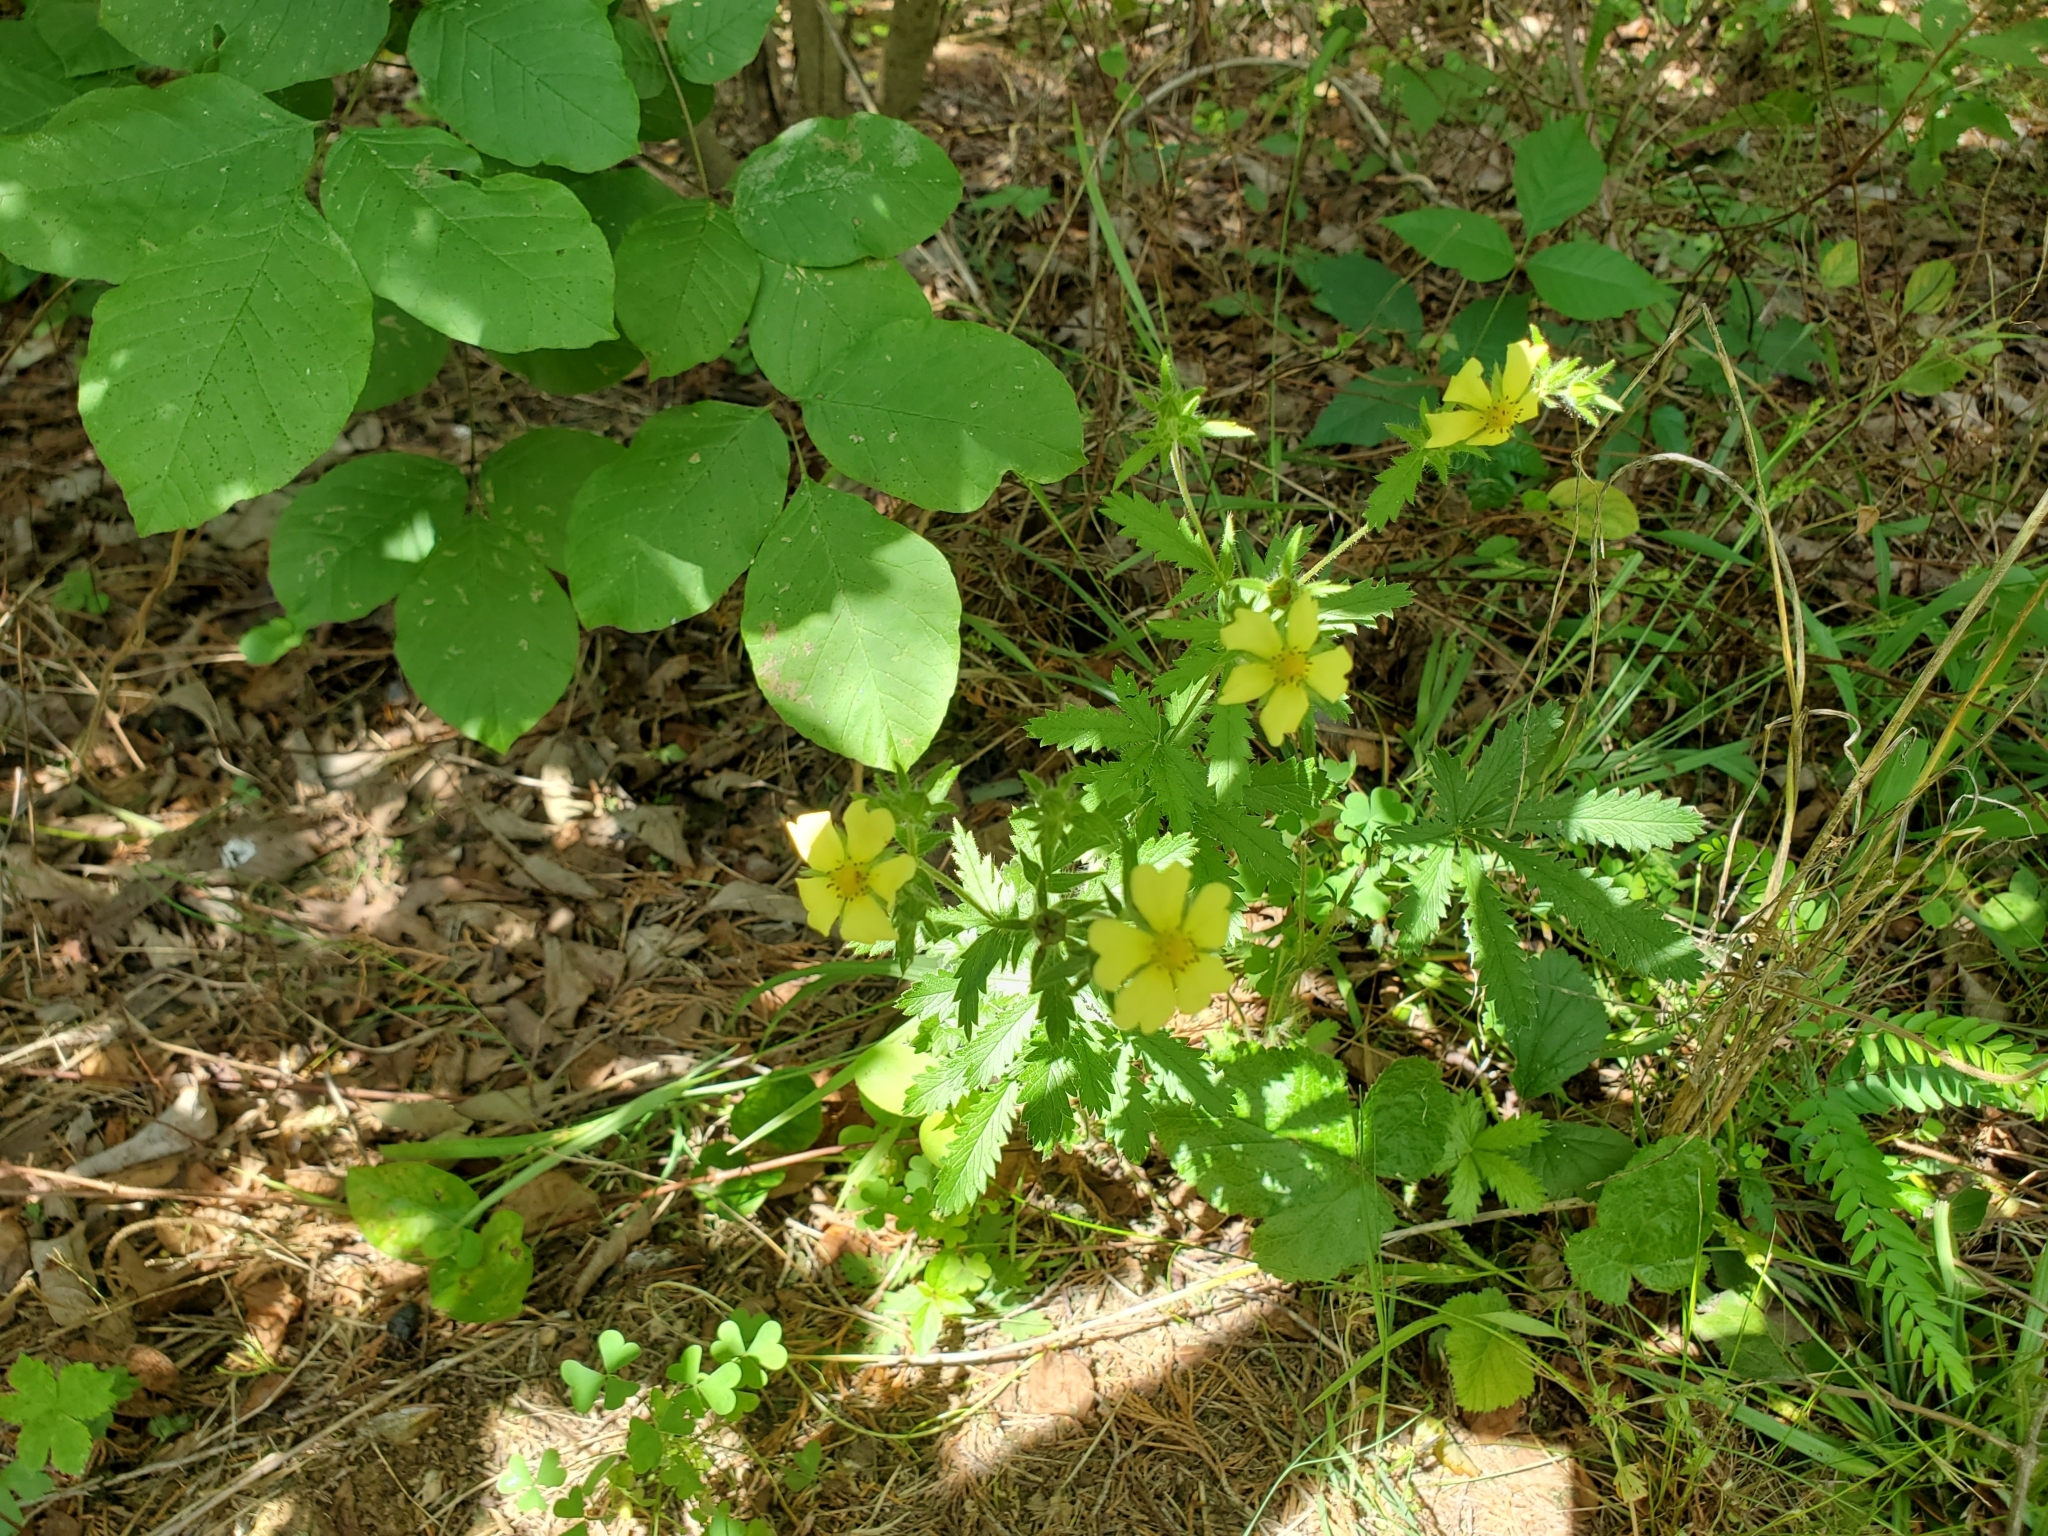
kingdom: Plantae
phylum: Tracheophyta
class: Magnoliopsida
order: Rosales
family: Rosaceae
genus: Potentilla
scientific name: Potentilla recta
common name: Sulphur cinquefoil
